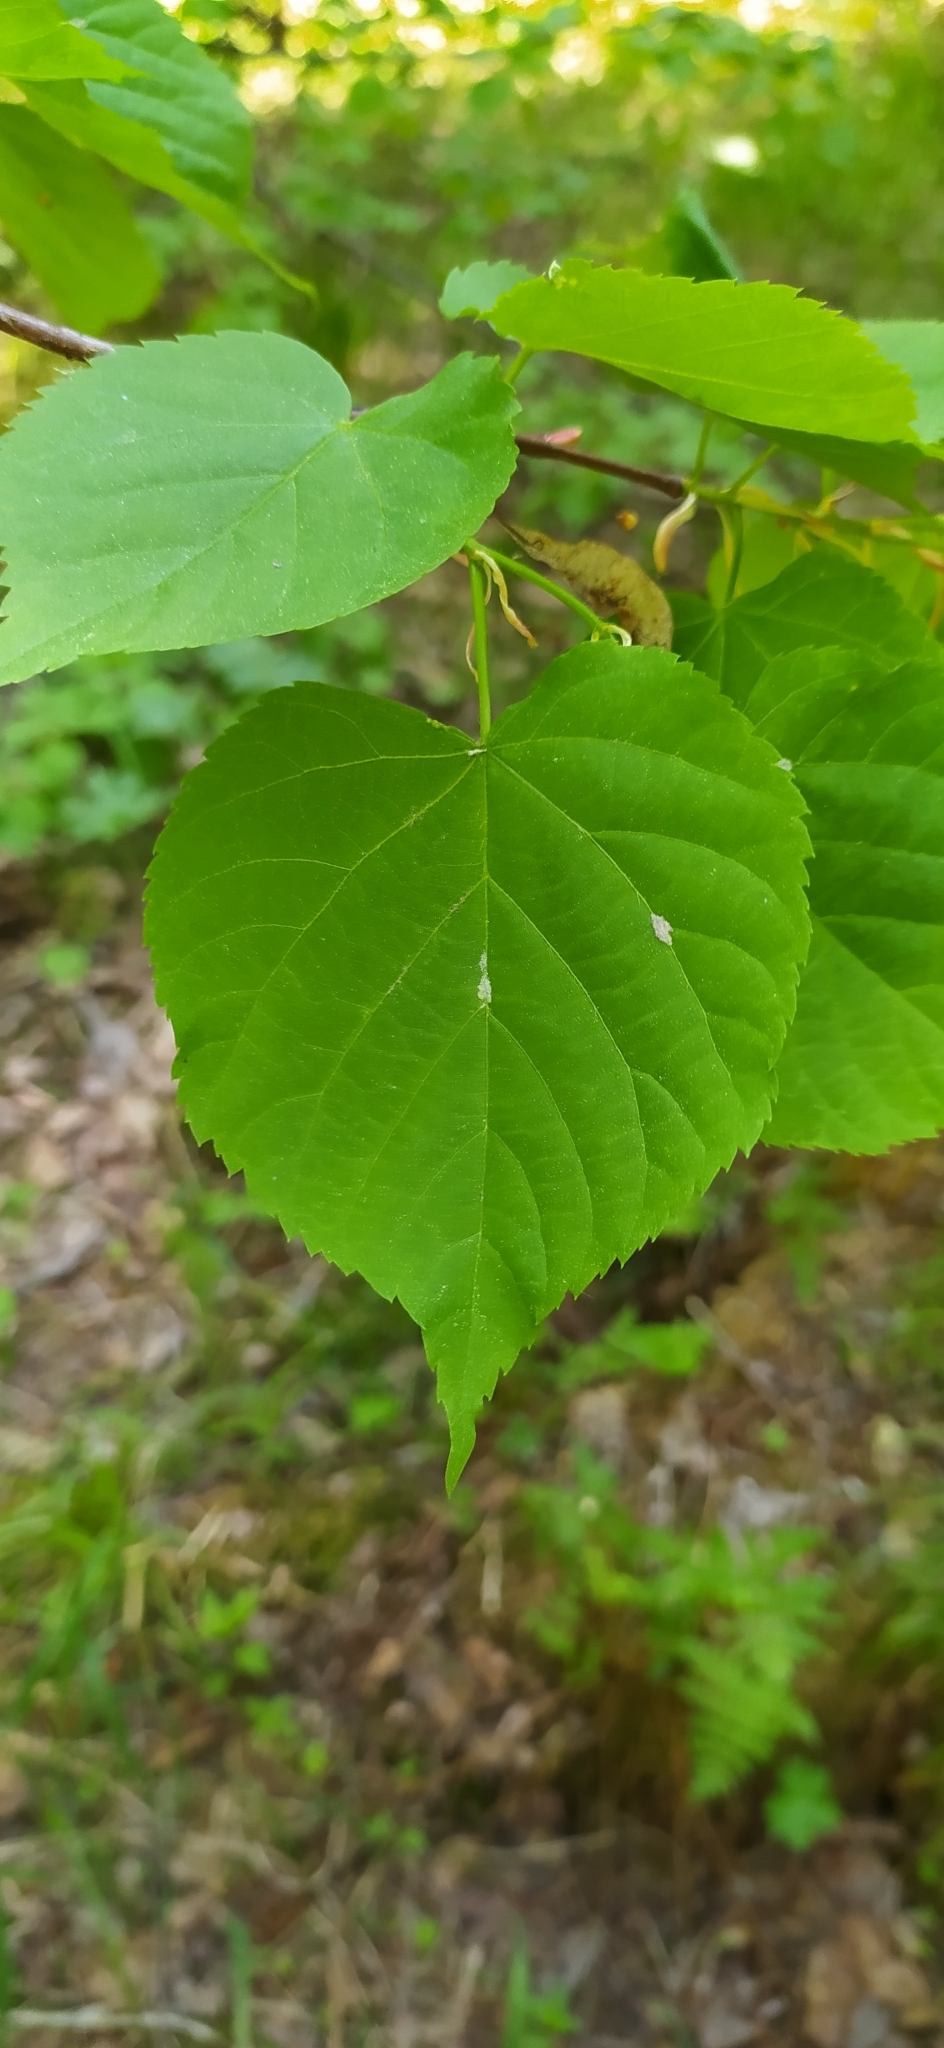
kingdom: Plantae
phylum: Tracheophyta
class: Magnoliopsida
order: Malvales
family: Malvaceae
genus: Tilia
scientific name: Tilia cordata
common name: Small-leaved lime
